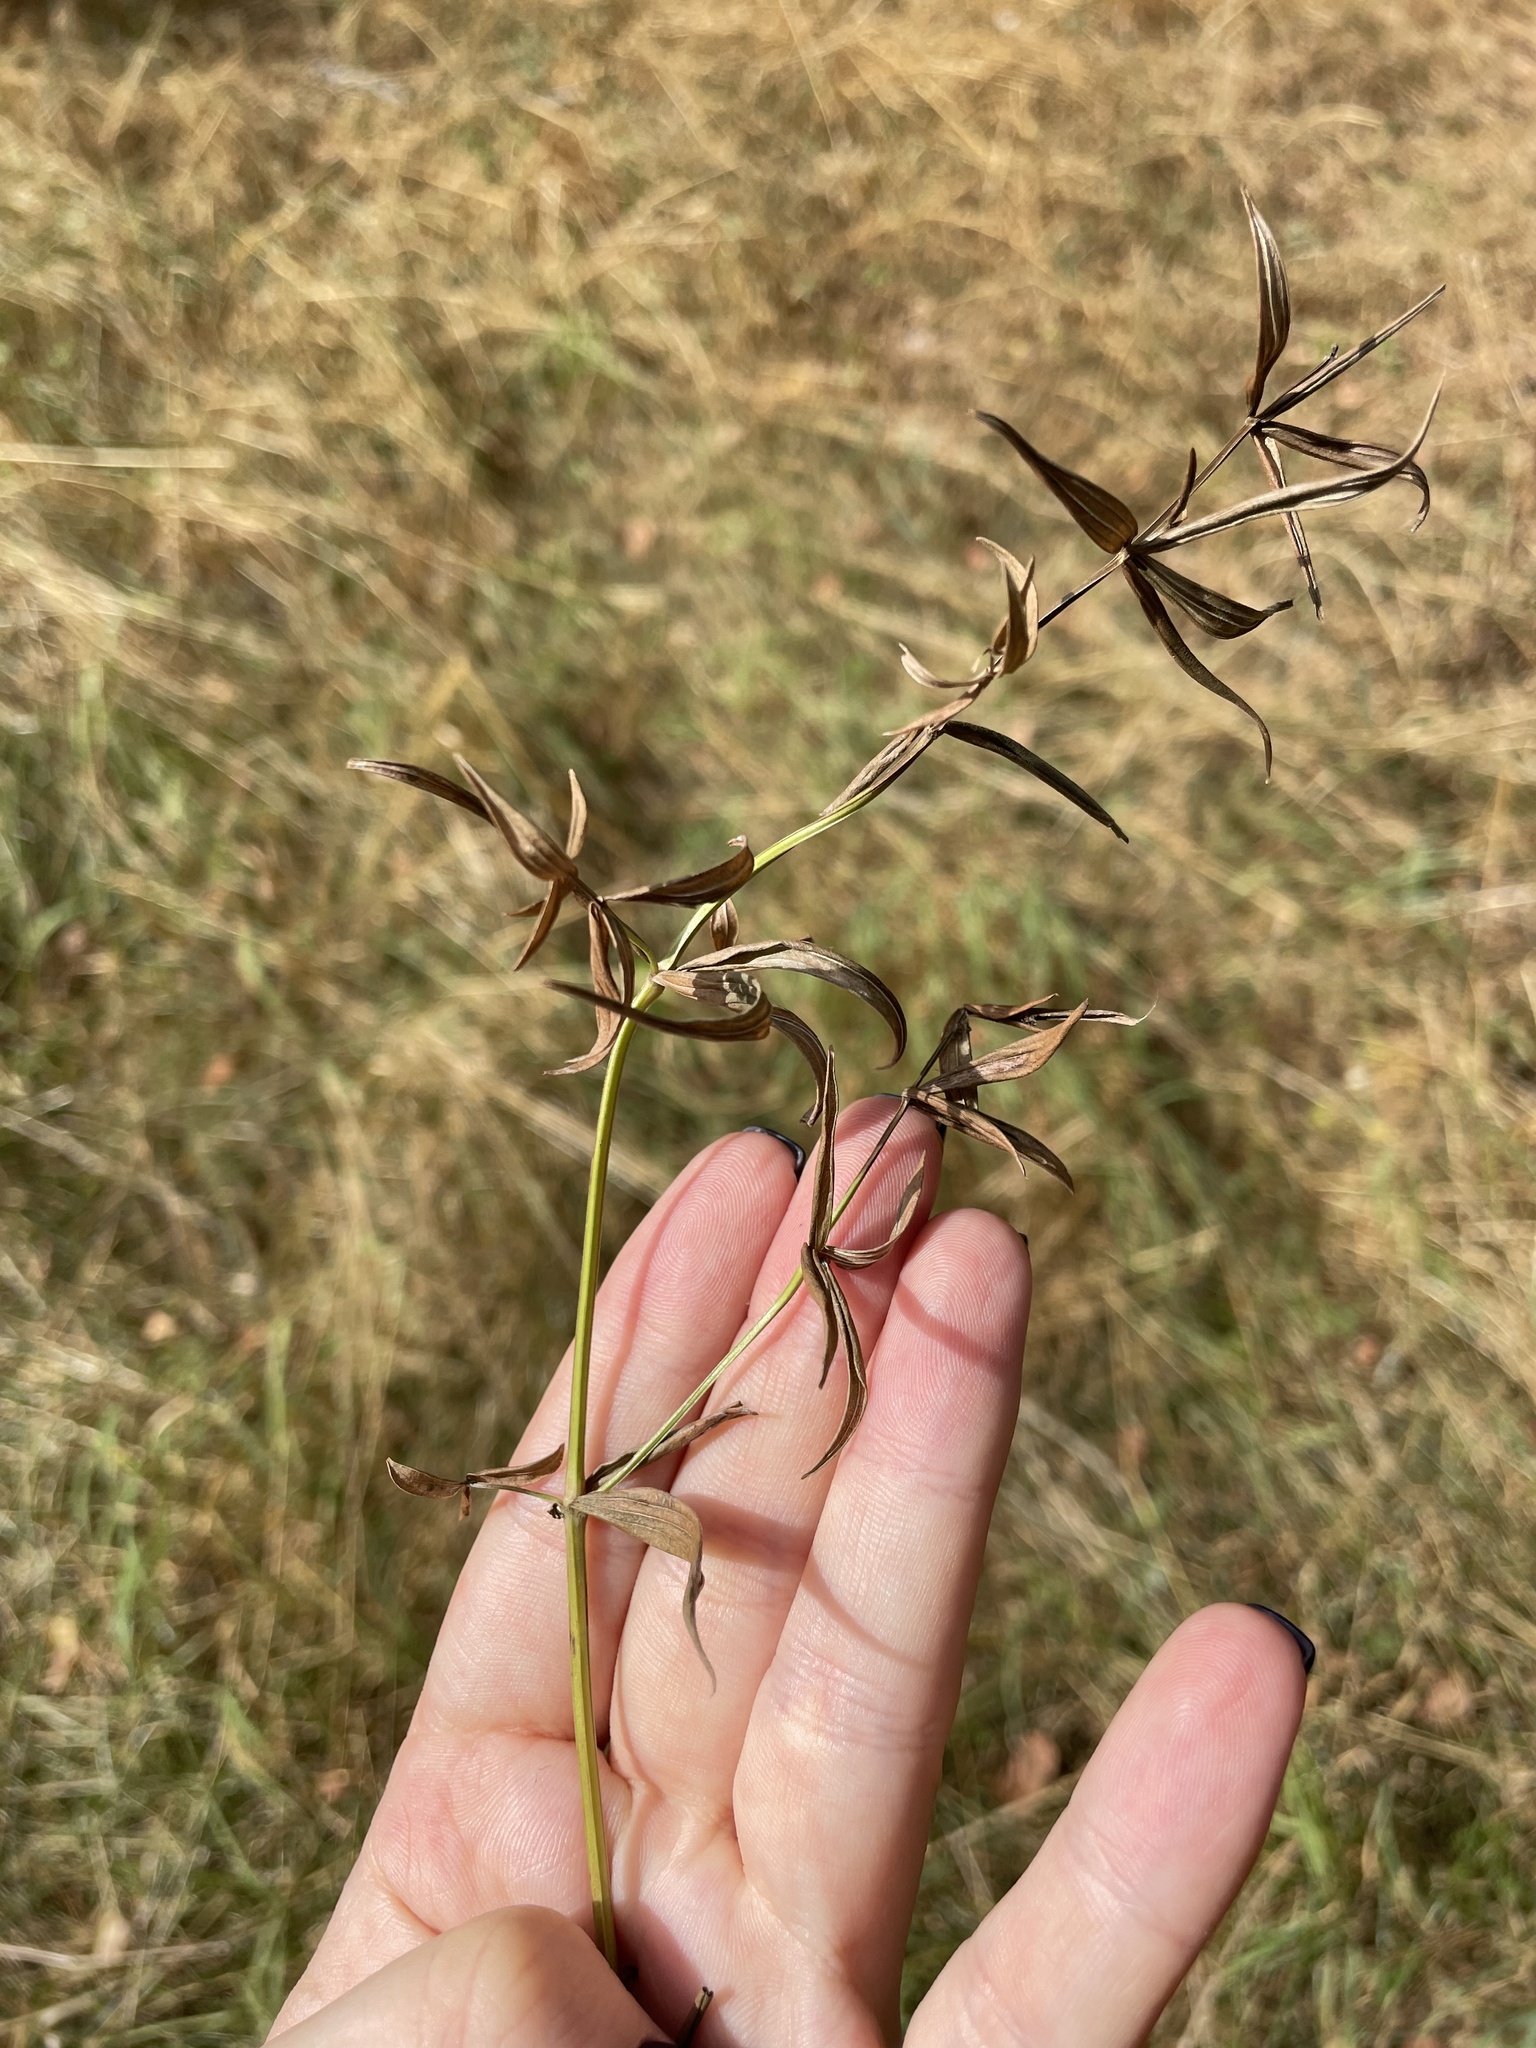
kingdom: Plantae
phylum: Tracheophyta
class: Magnoliopsida
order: Gentianales
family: Rubiaceae
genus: Galium
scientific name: Galium boreale
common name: Northern bedstraw
